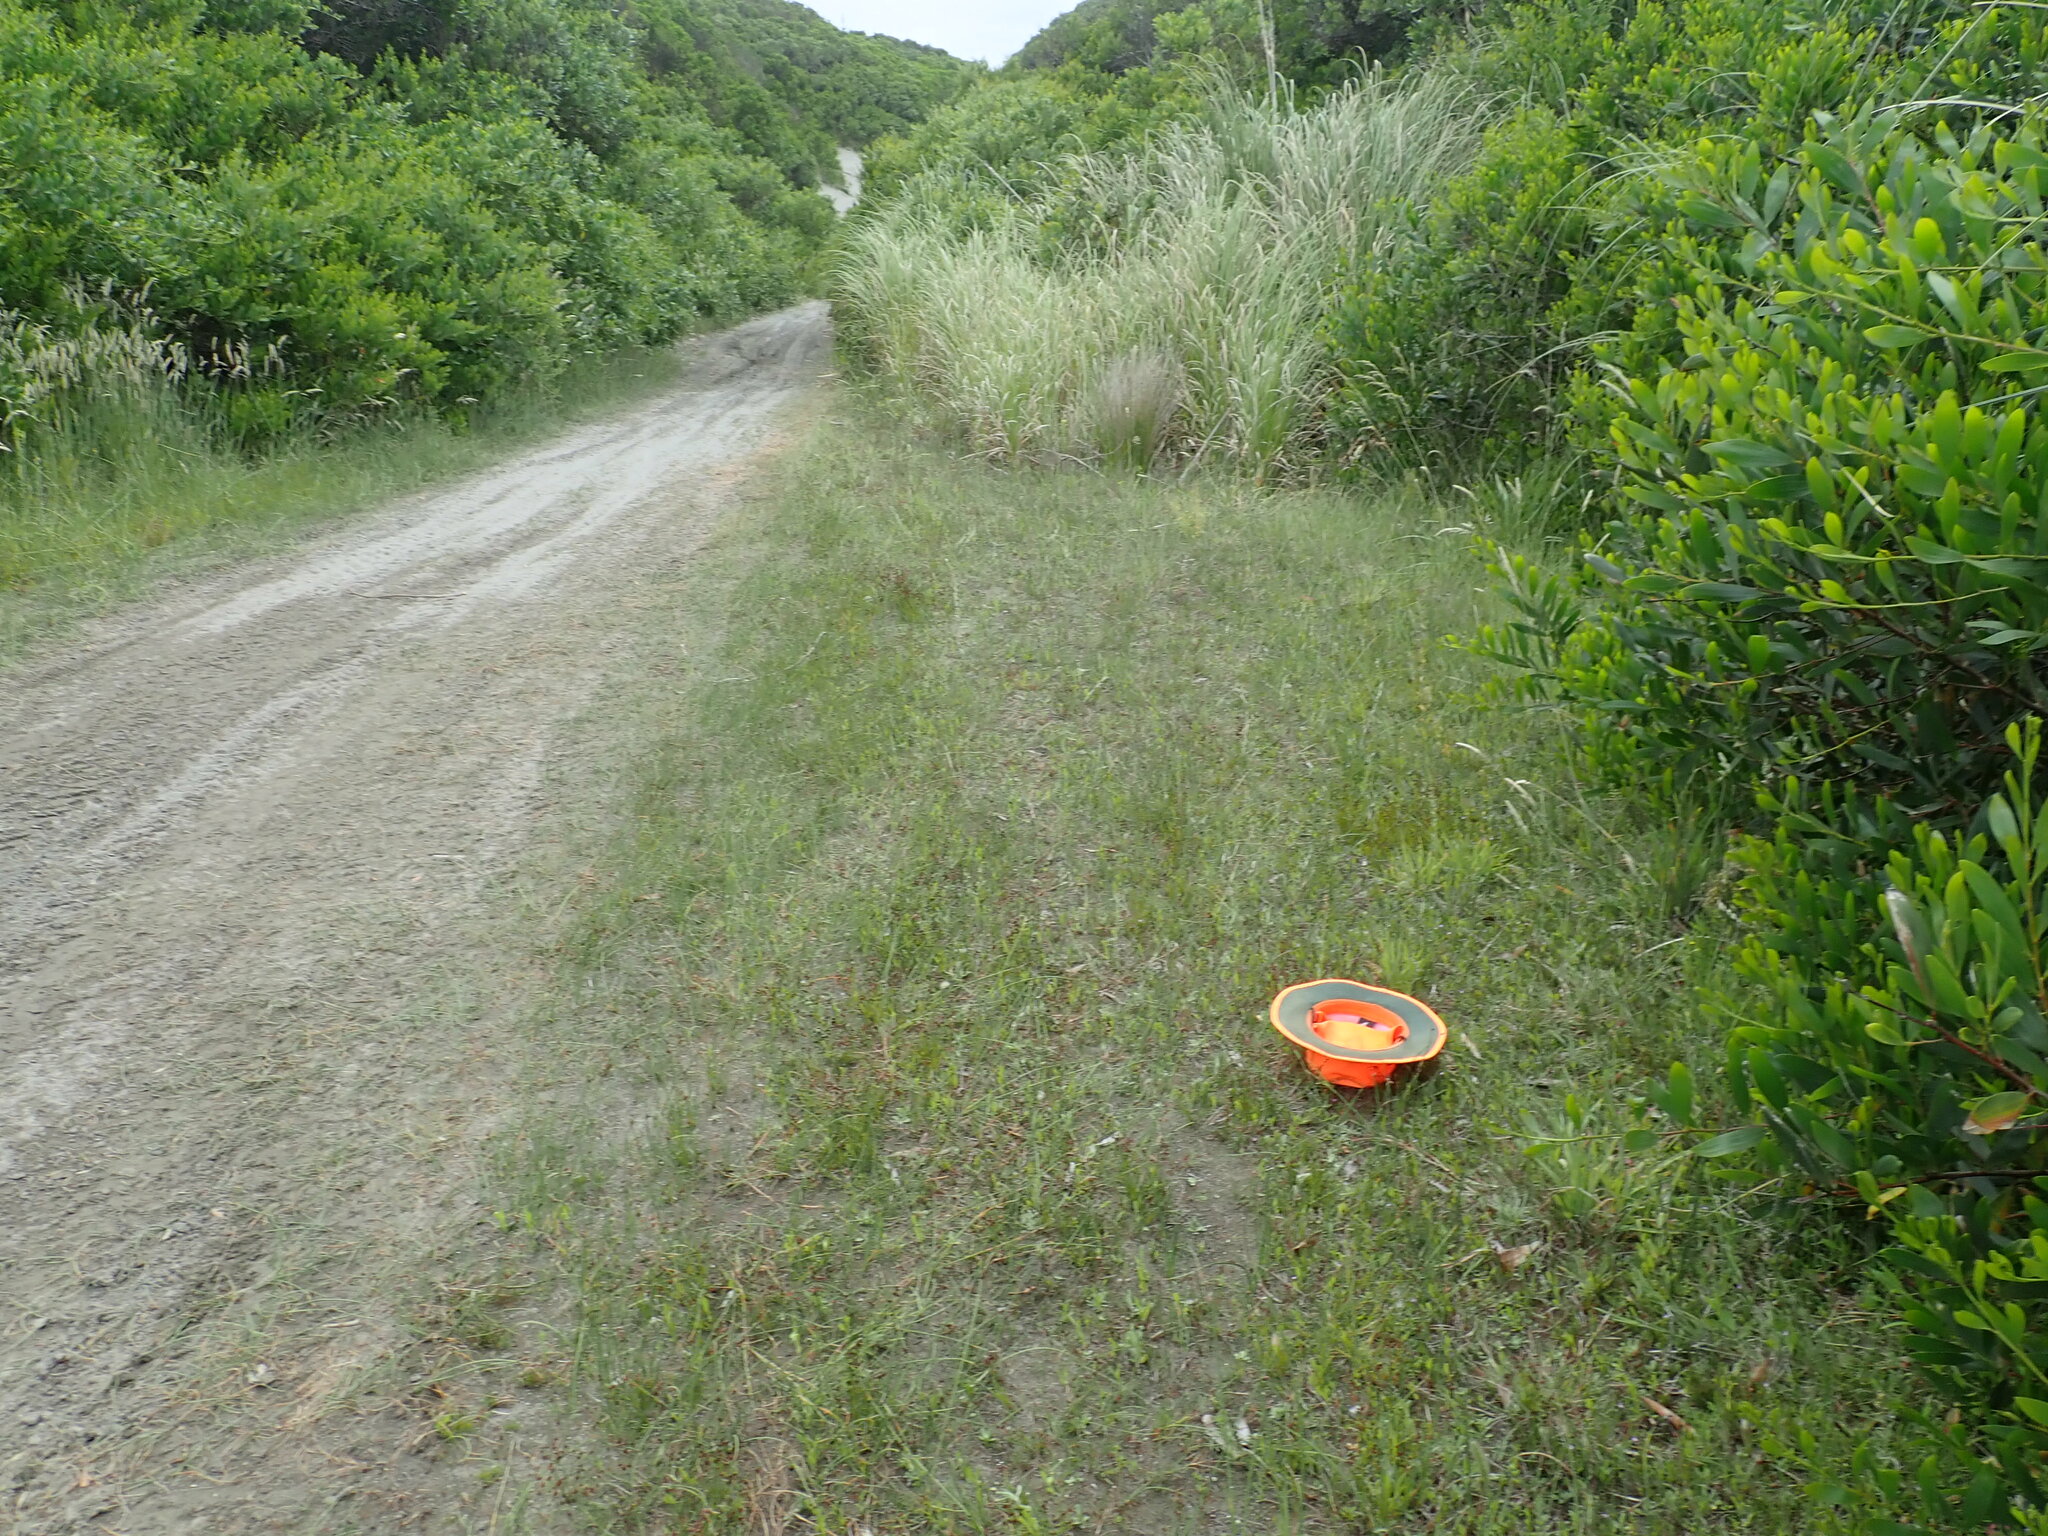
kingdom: Plantae
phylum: Tracheophyta
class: Magnoliopsida
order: Asterales
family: Goodeniaceae
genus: Goodenia
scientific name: Goodenia heenanii
